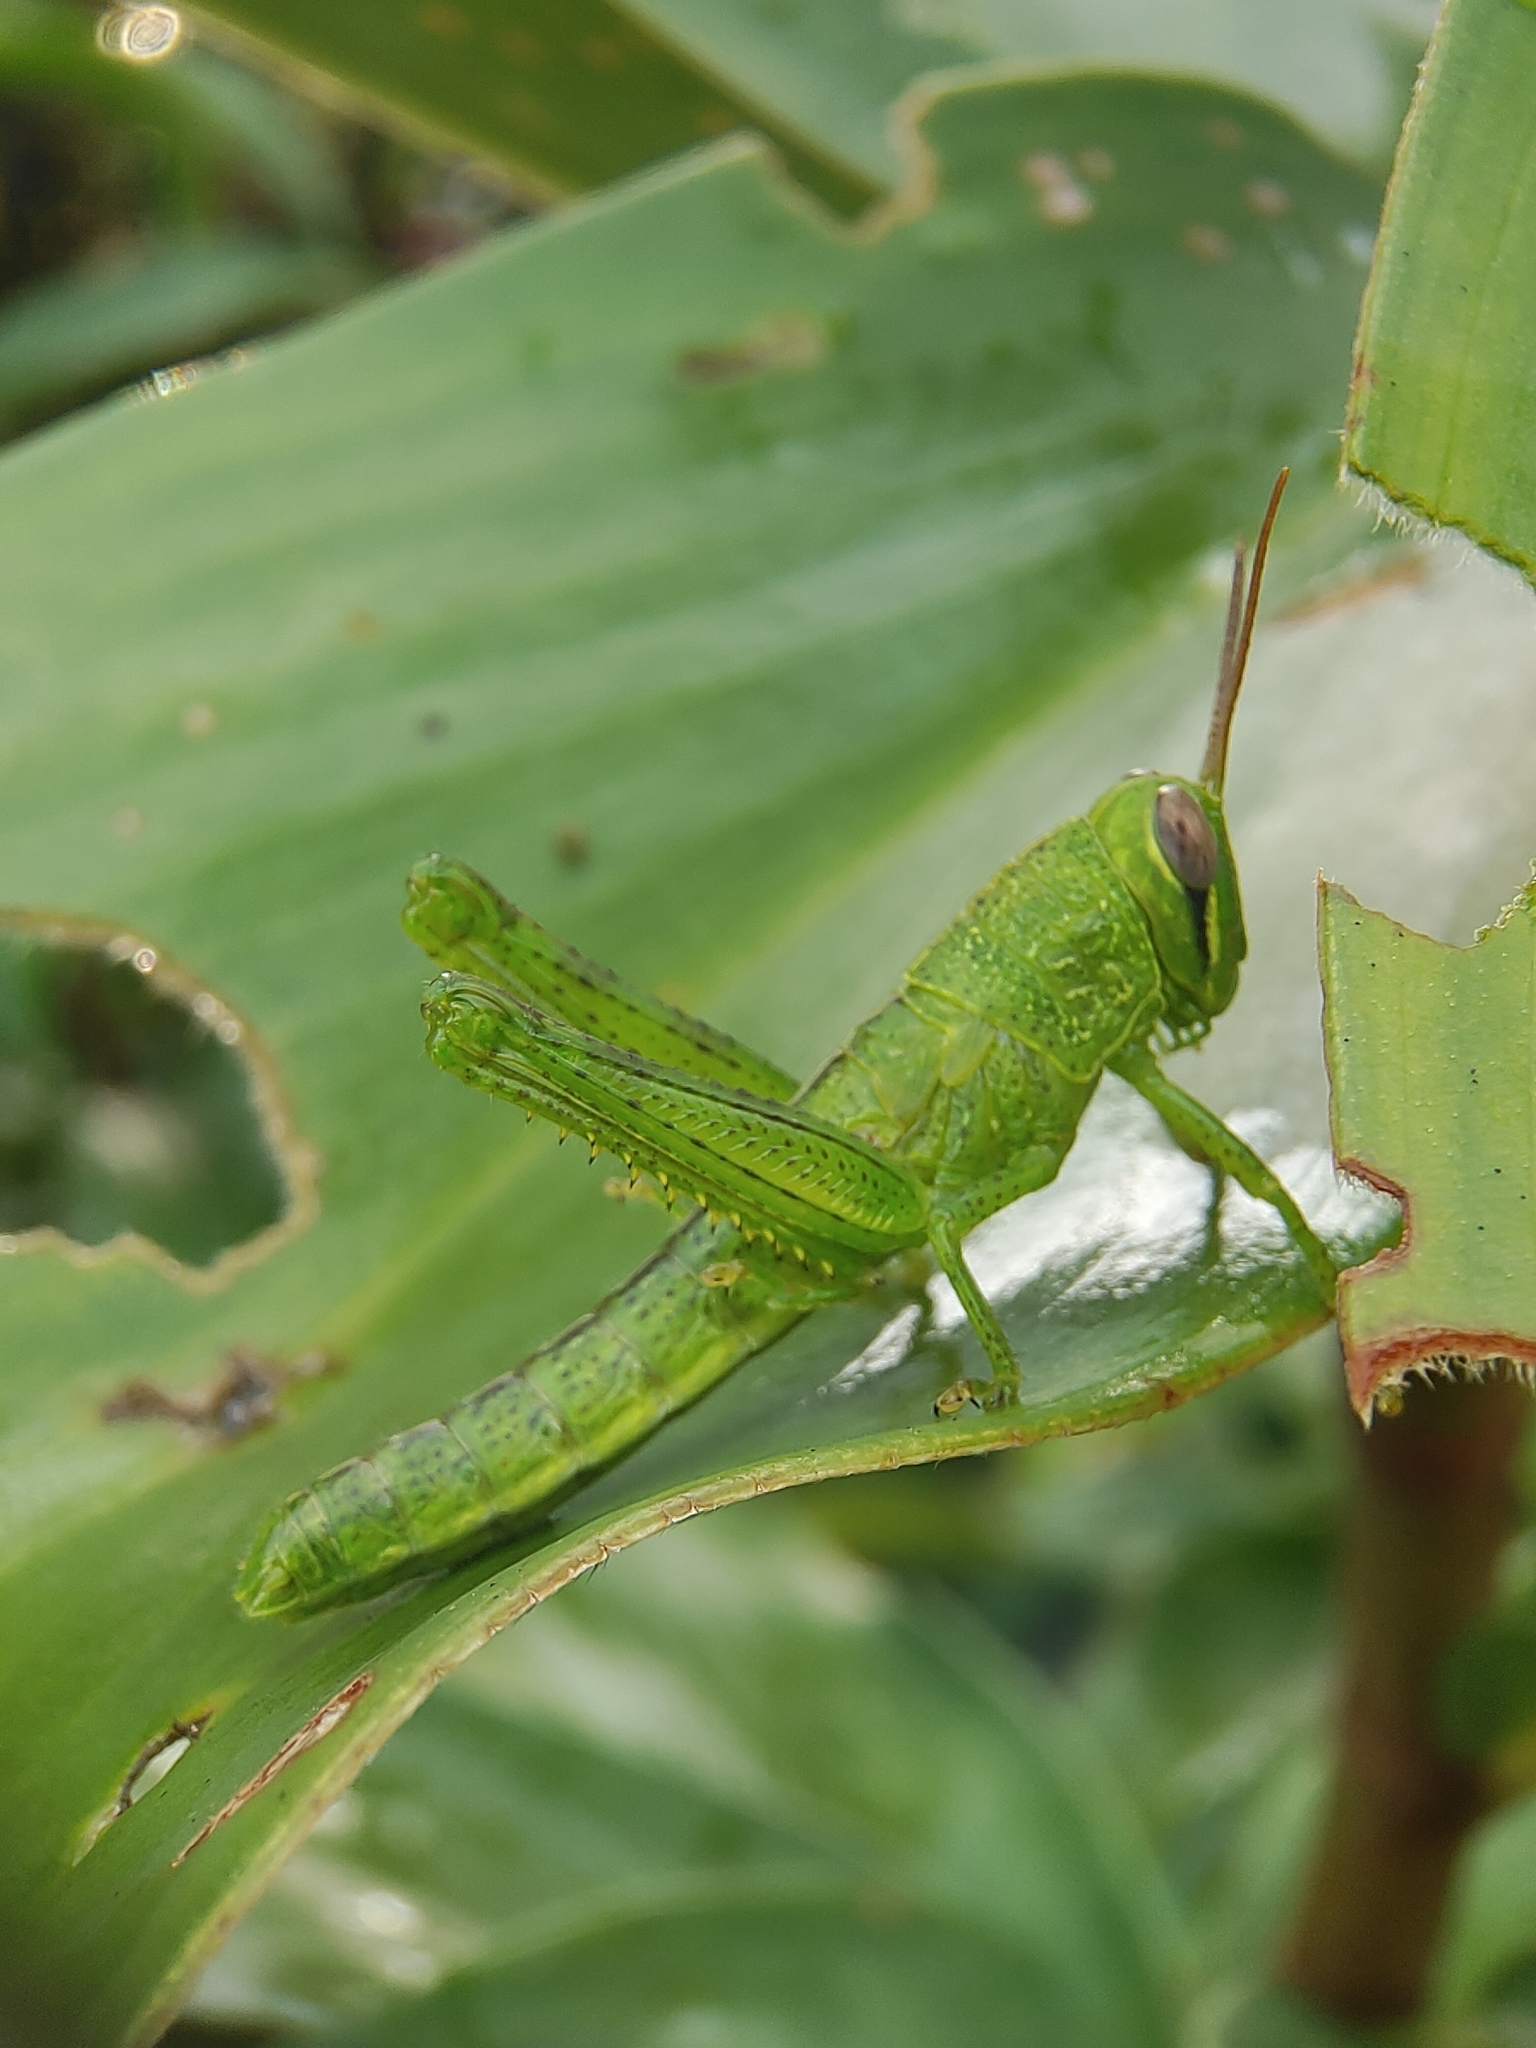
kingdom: Animalia
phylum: Arthropoda
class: Insecta
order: Orthoptera
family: Acrididae
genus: Valanga
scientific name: Valanga nigricornis
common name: Javanese bird grasshopper
